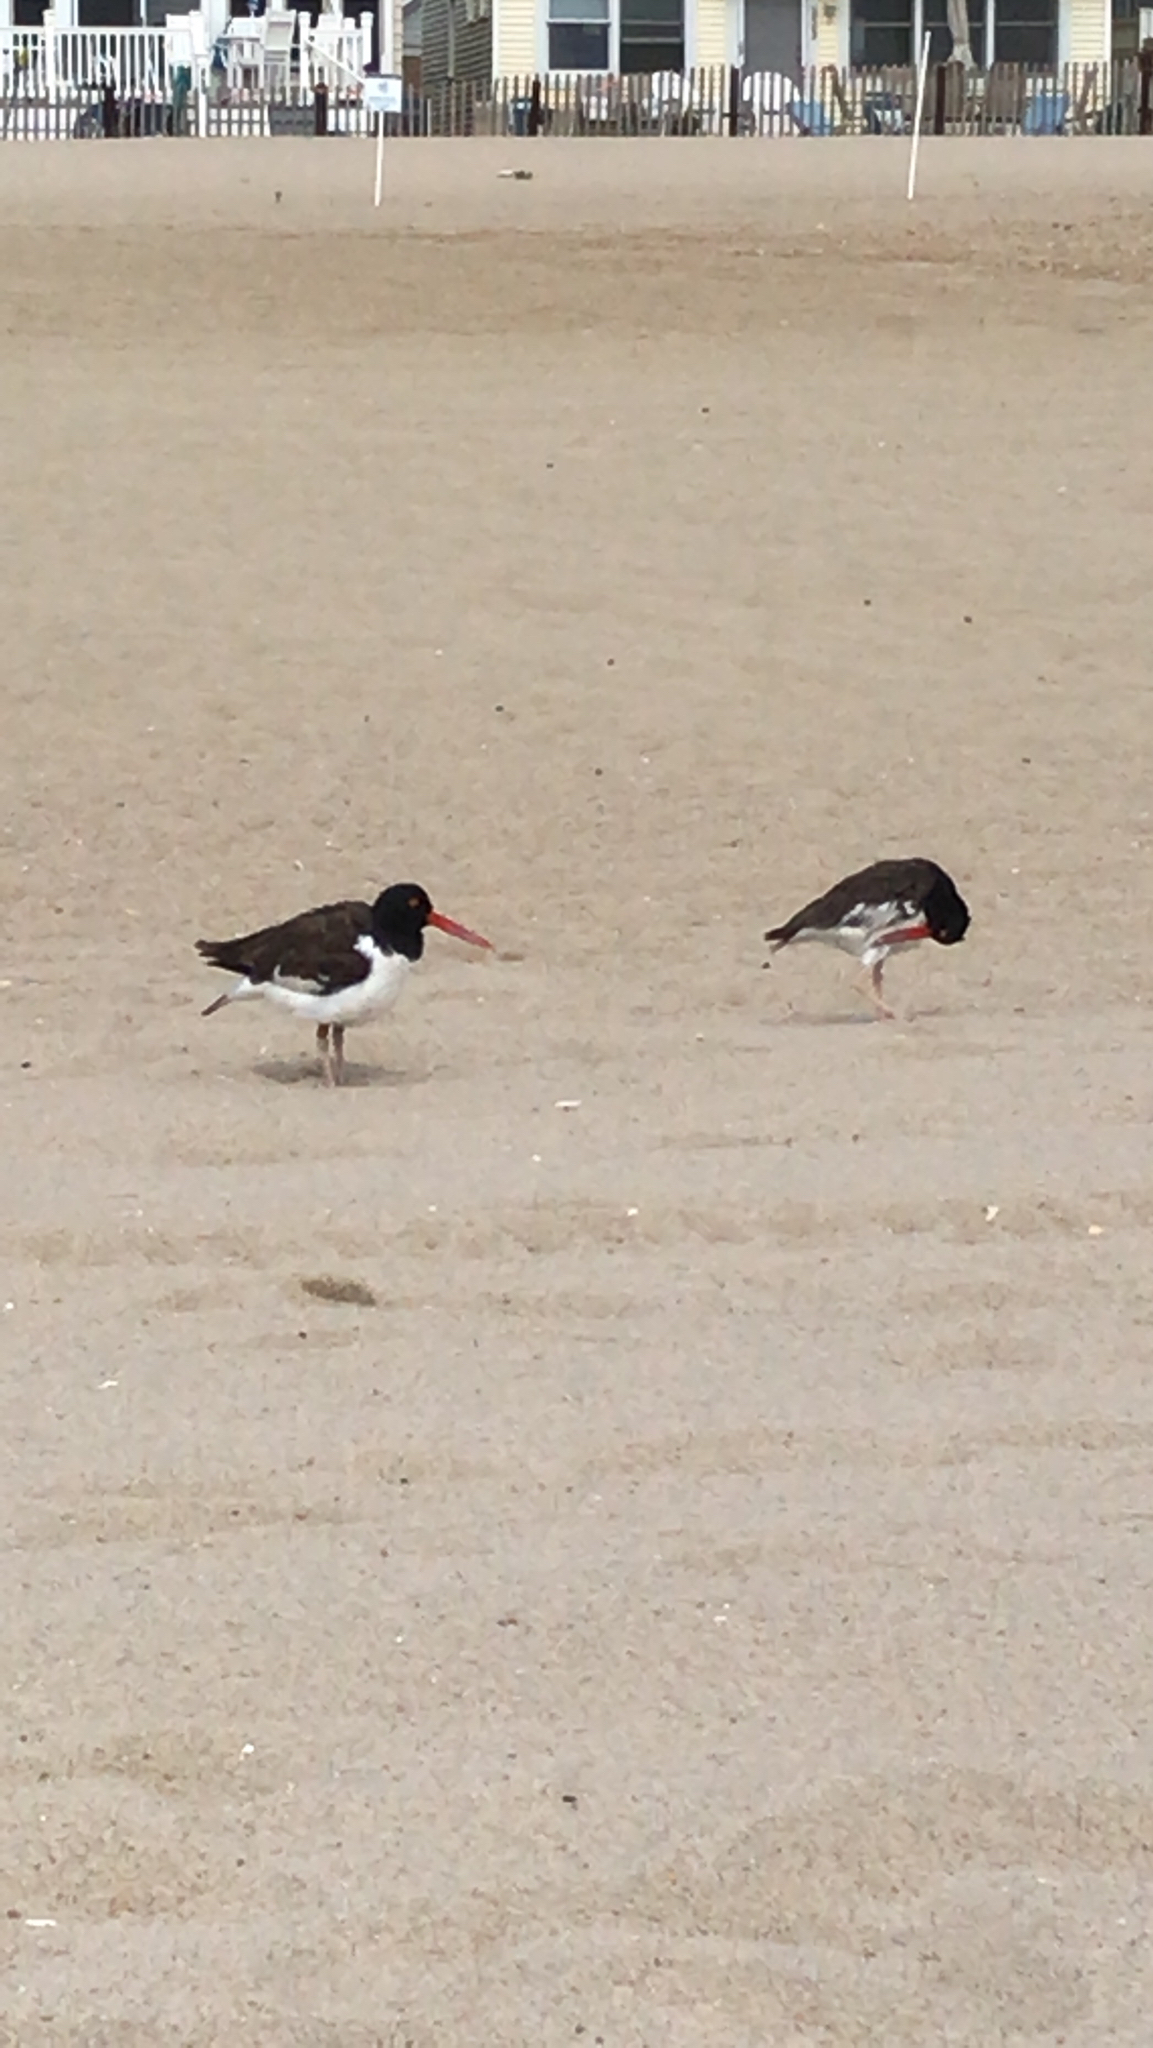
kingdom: Animalia
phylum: Chordata
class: Aves
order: Charadriiformes
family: Haematopodidae
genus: Haematopus
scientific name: Haematopus palliatus
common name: American oystercatcher
